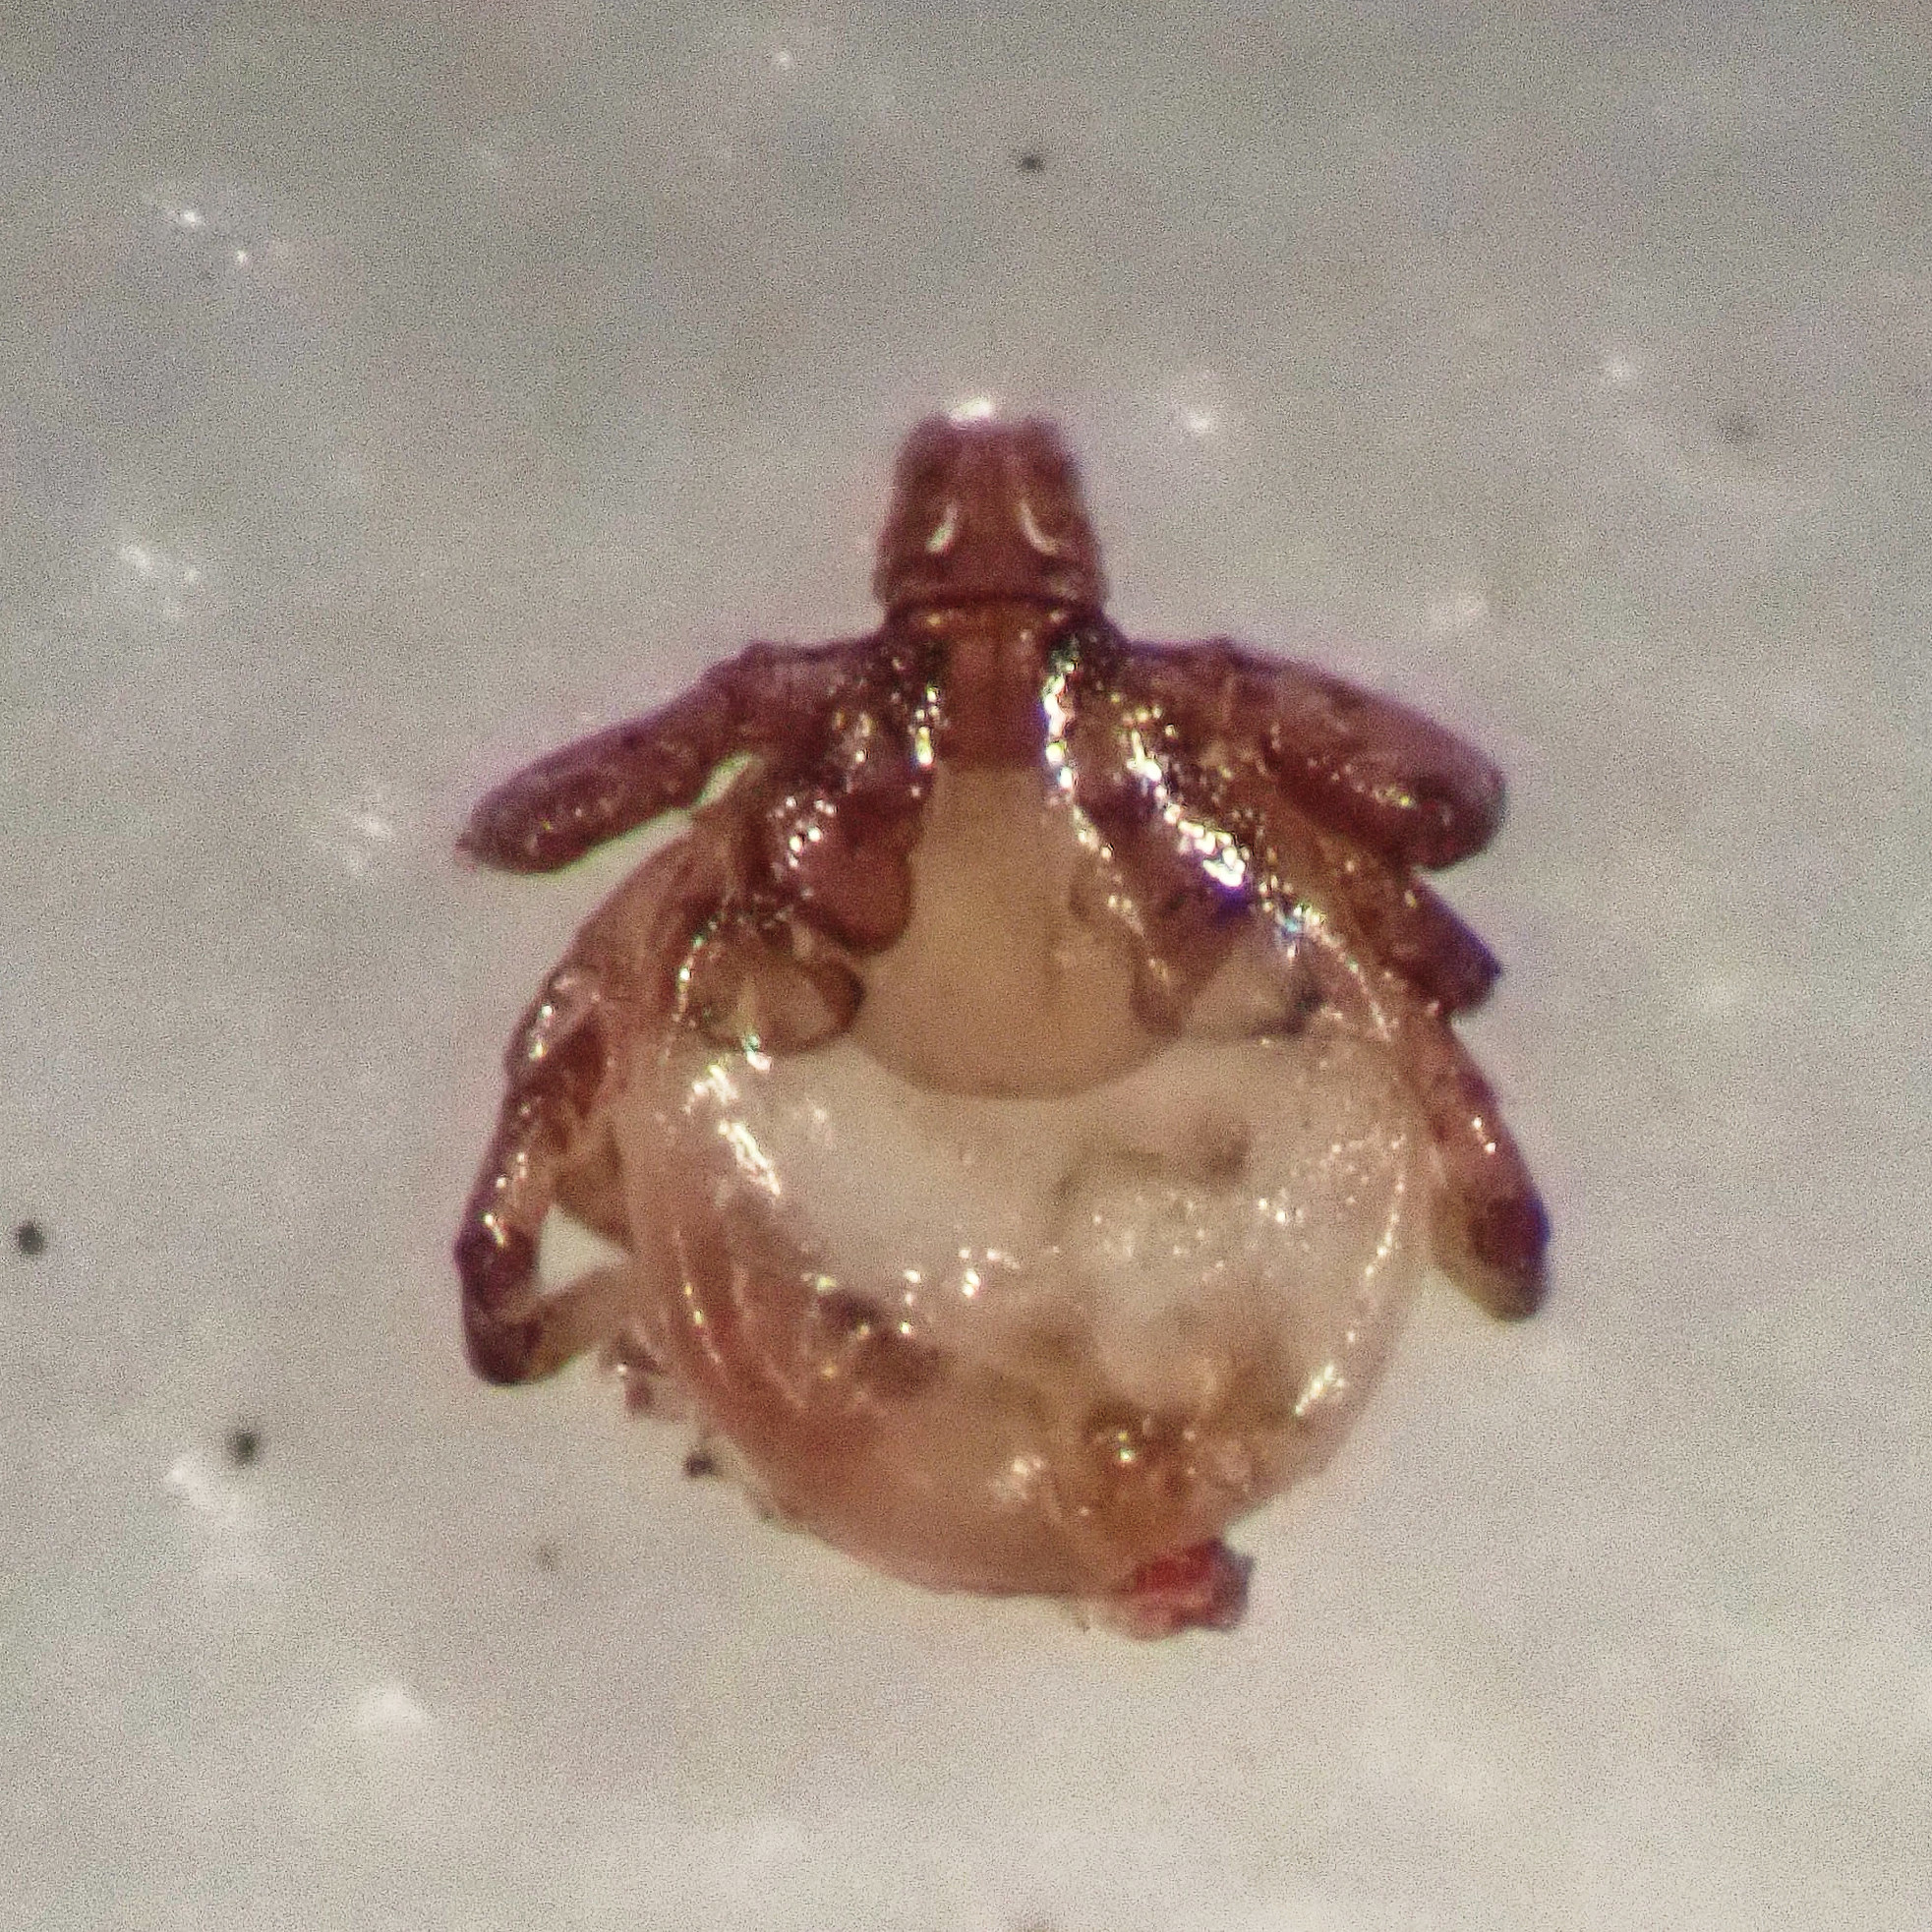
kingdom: Animalia
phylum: Arthropoda
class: Arachnida
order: Ixodida
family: Ixodidae
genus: Ixodes
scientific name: Ixodes
